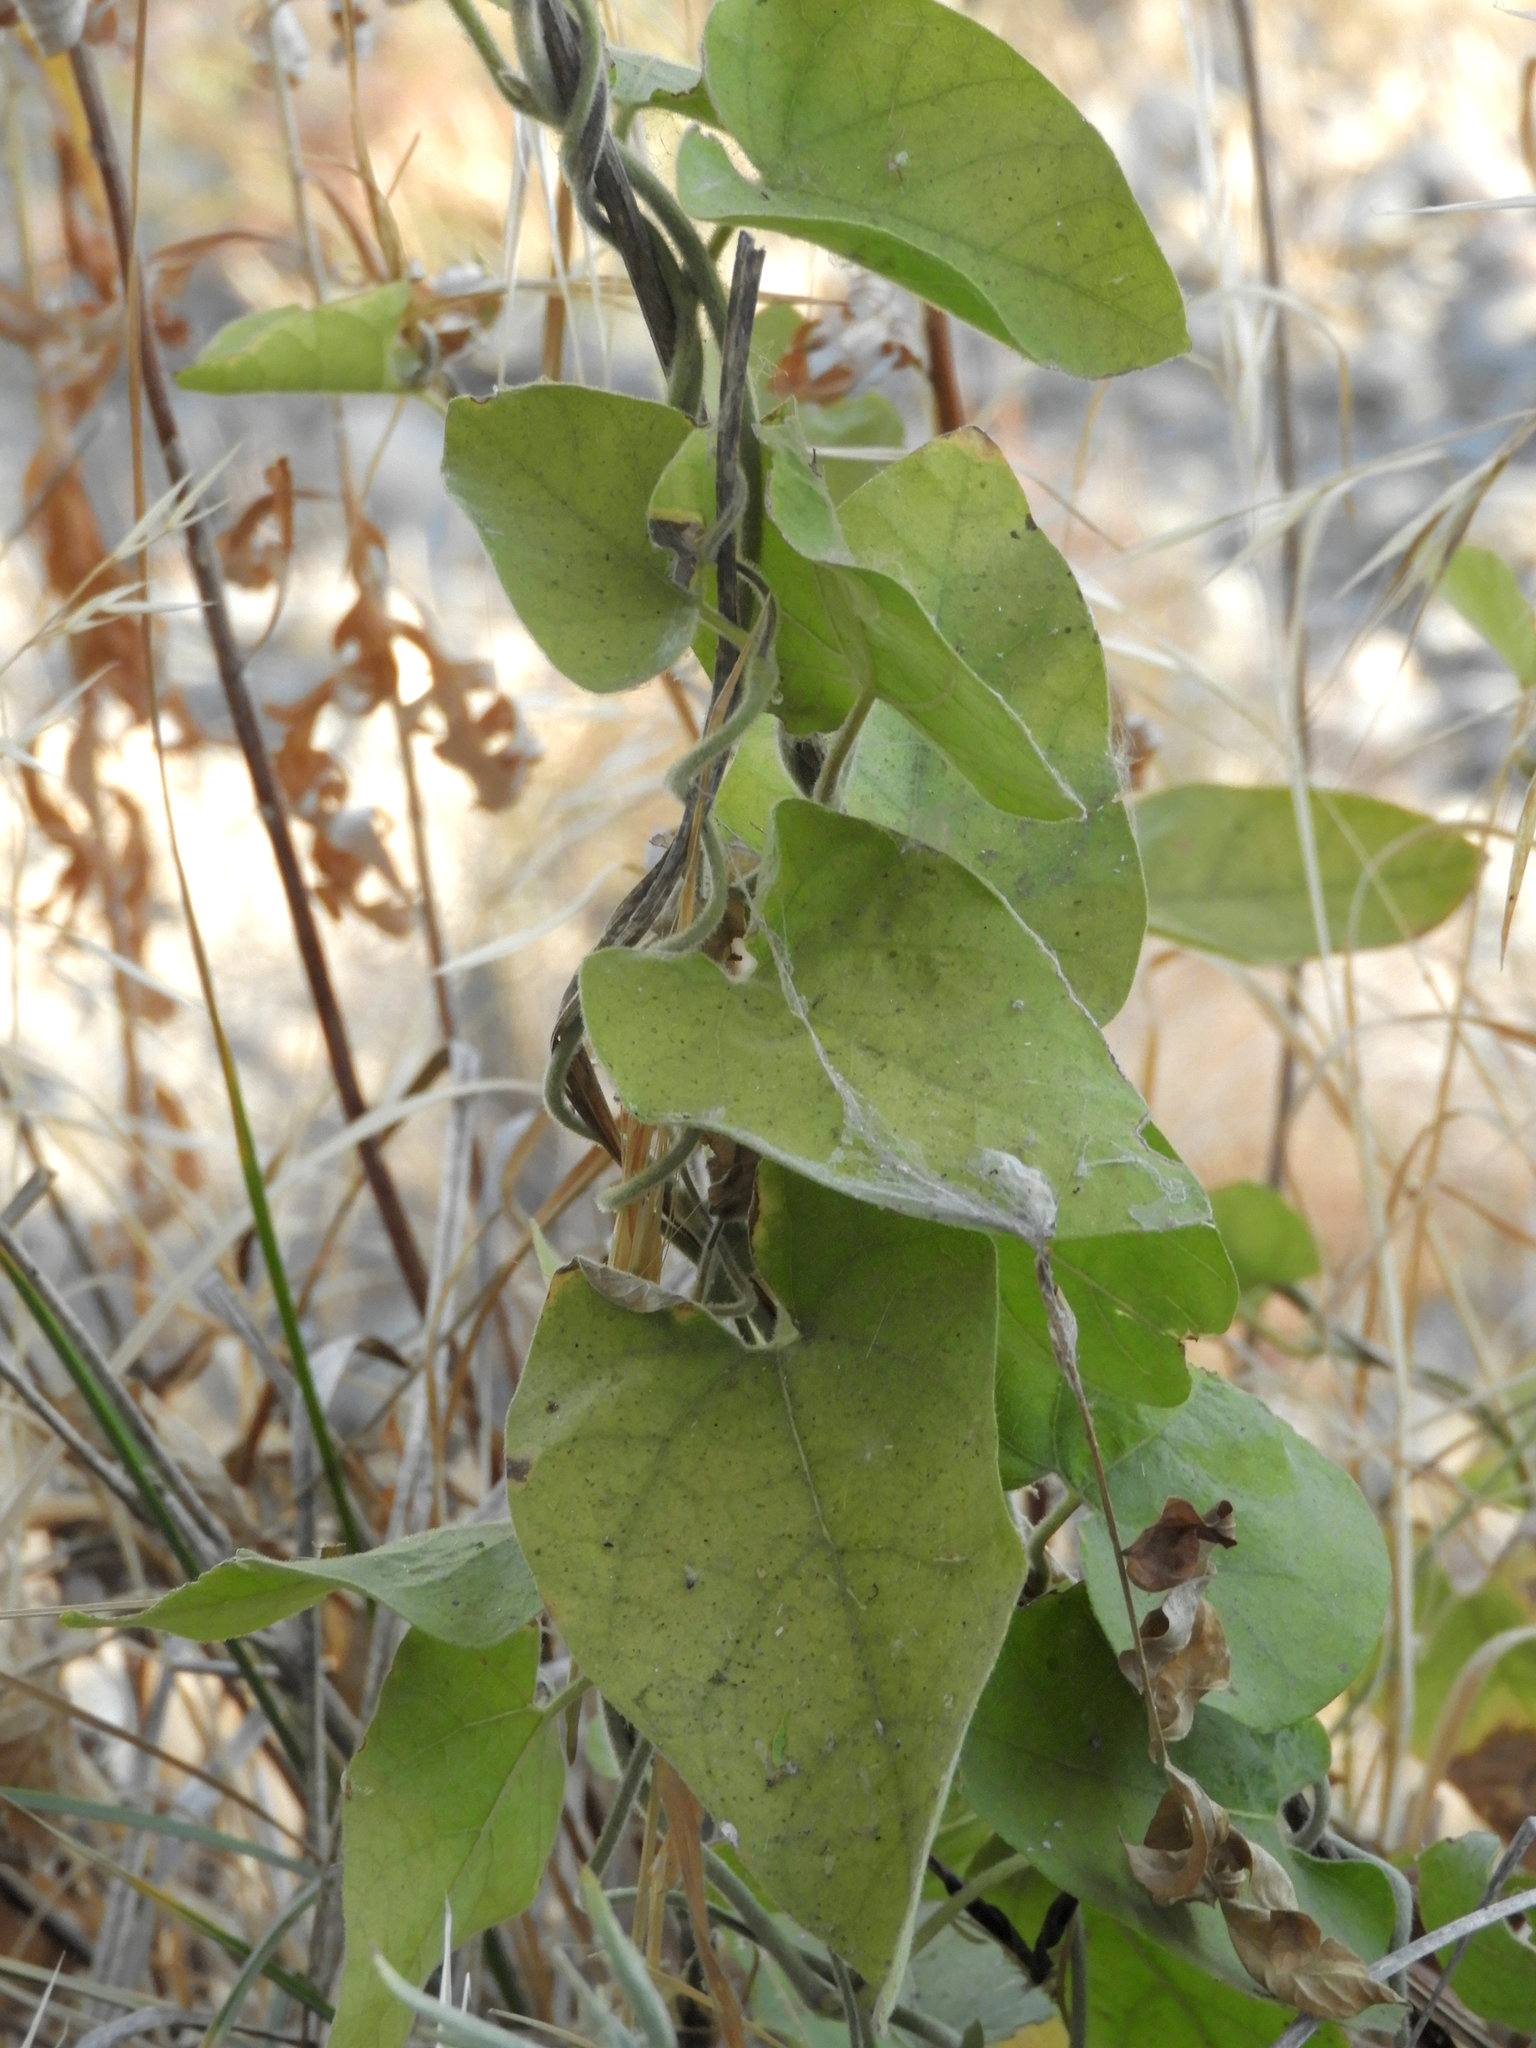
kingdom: Plantae
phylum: Tracheophyta
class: Magnoliopsida
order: Piperales
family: Aristolochiaceae
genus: Isotrema
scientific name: Isotrema californicum
